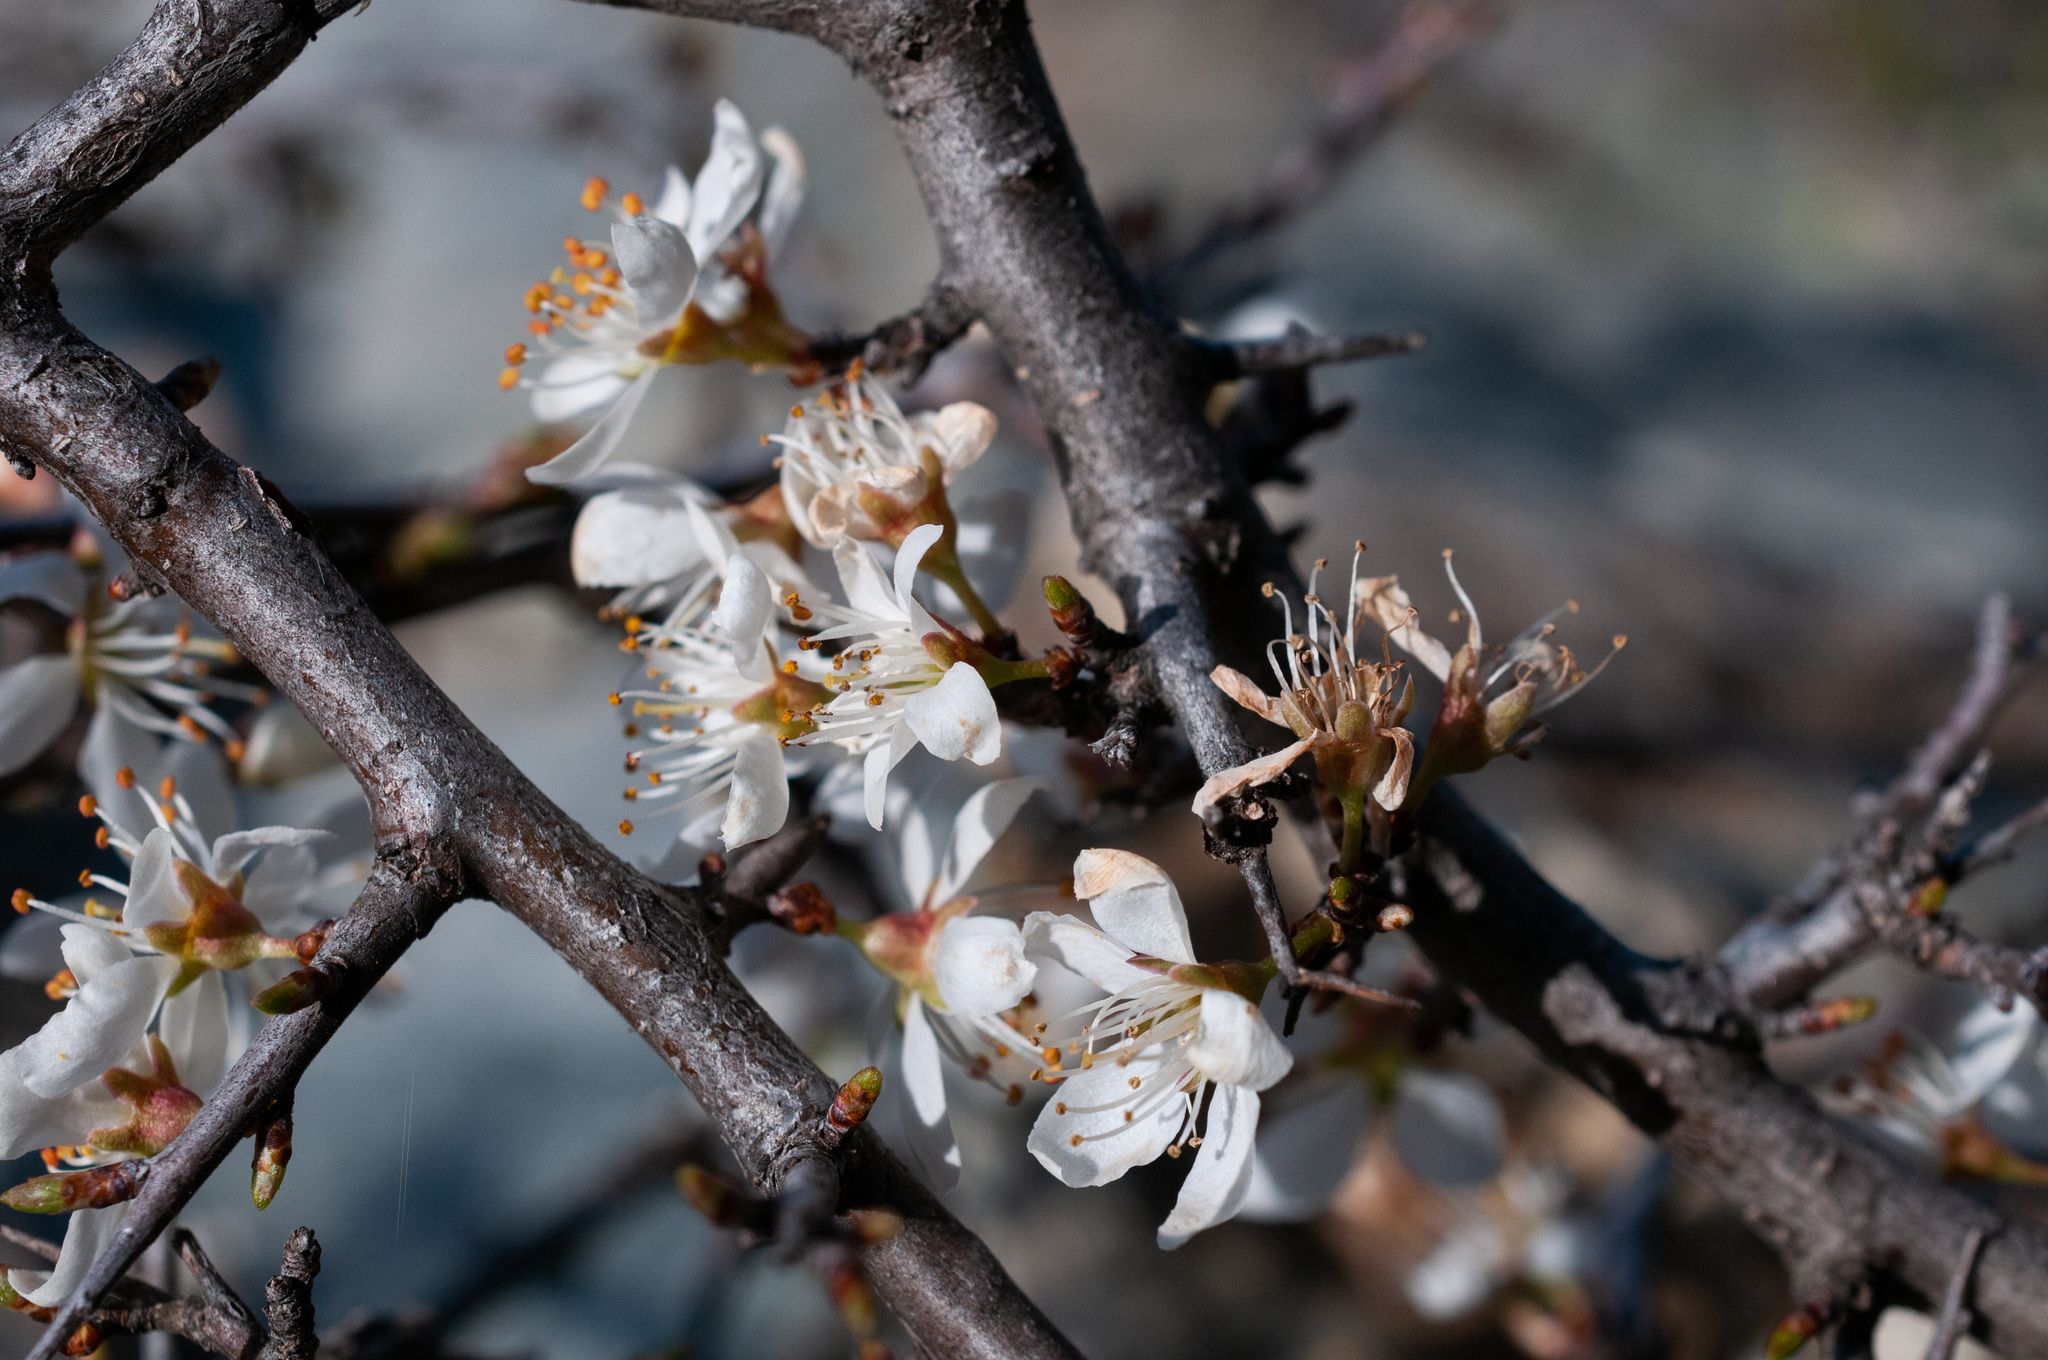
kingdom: Plantae
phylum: Tracheophyta
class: Magnoliopsida
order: Rosales
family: Rosaceae
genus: Prunus
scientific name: Prunus spinosa
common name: Blackthorn
